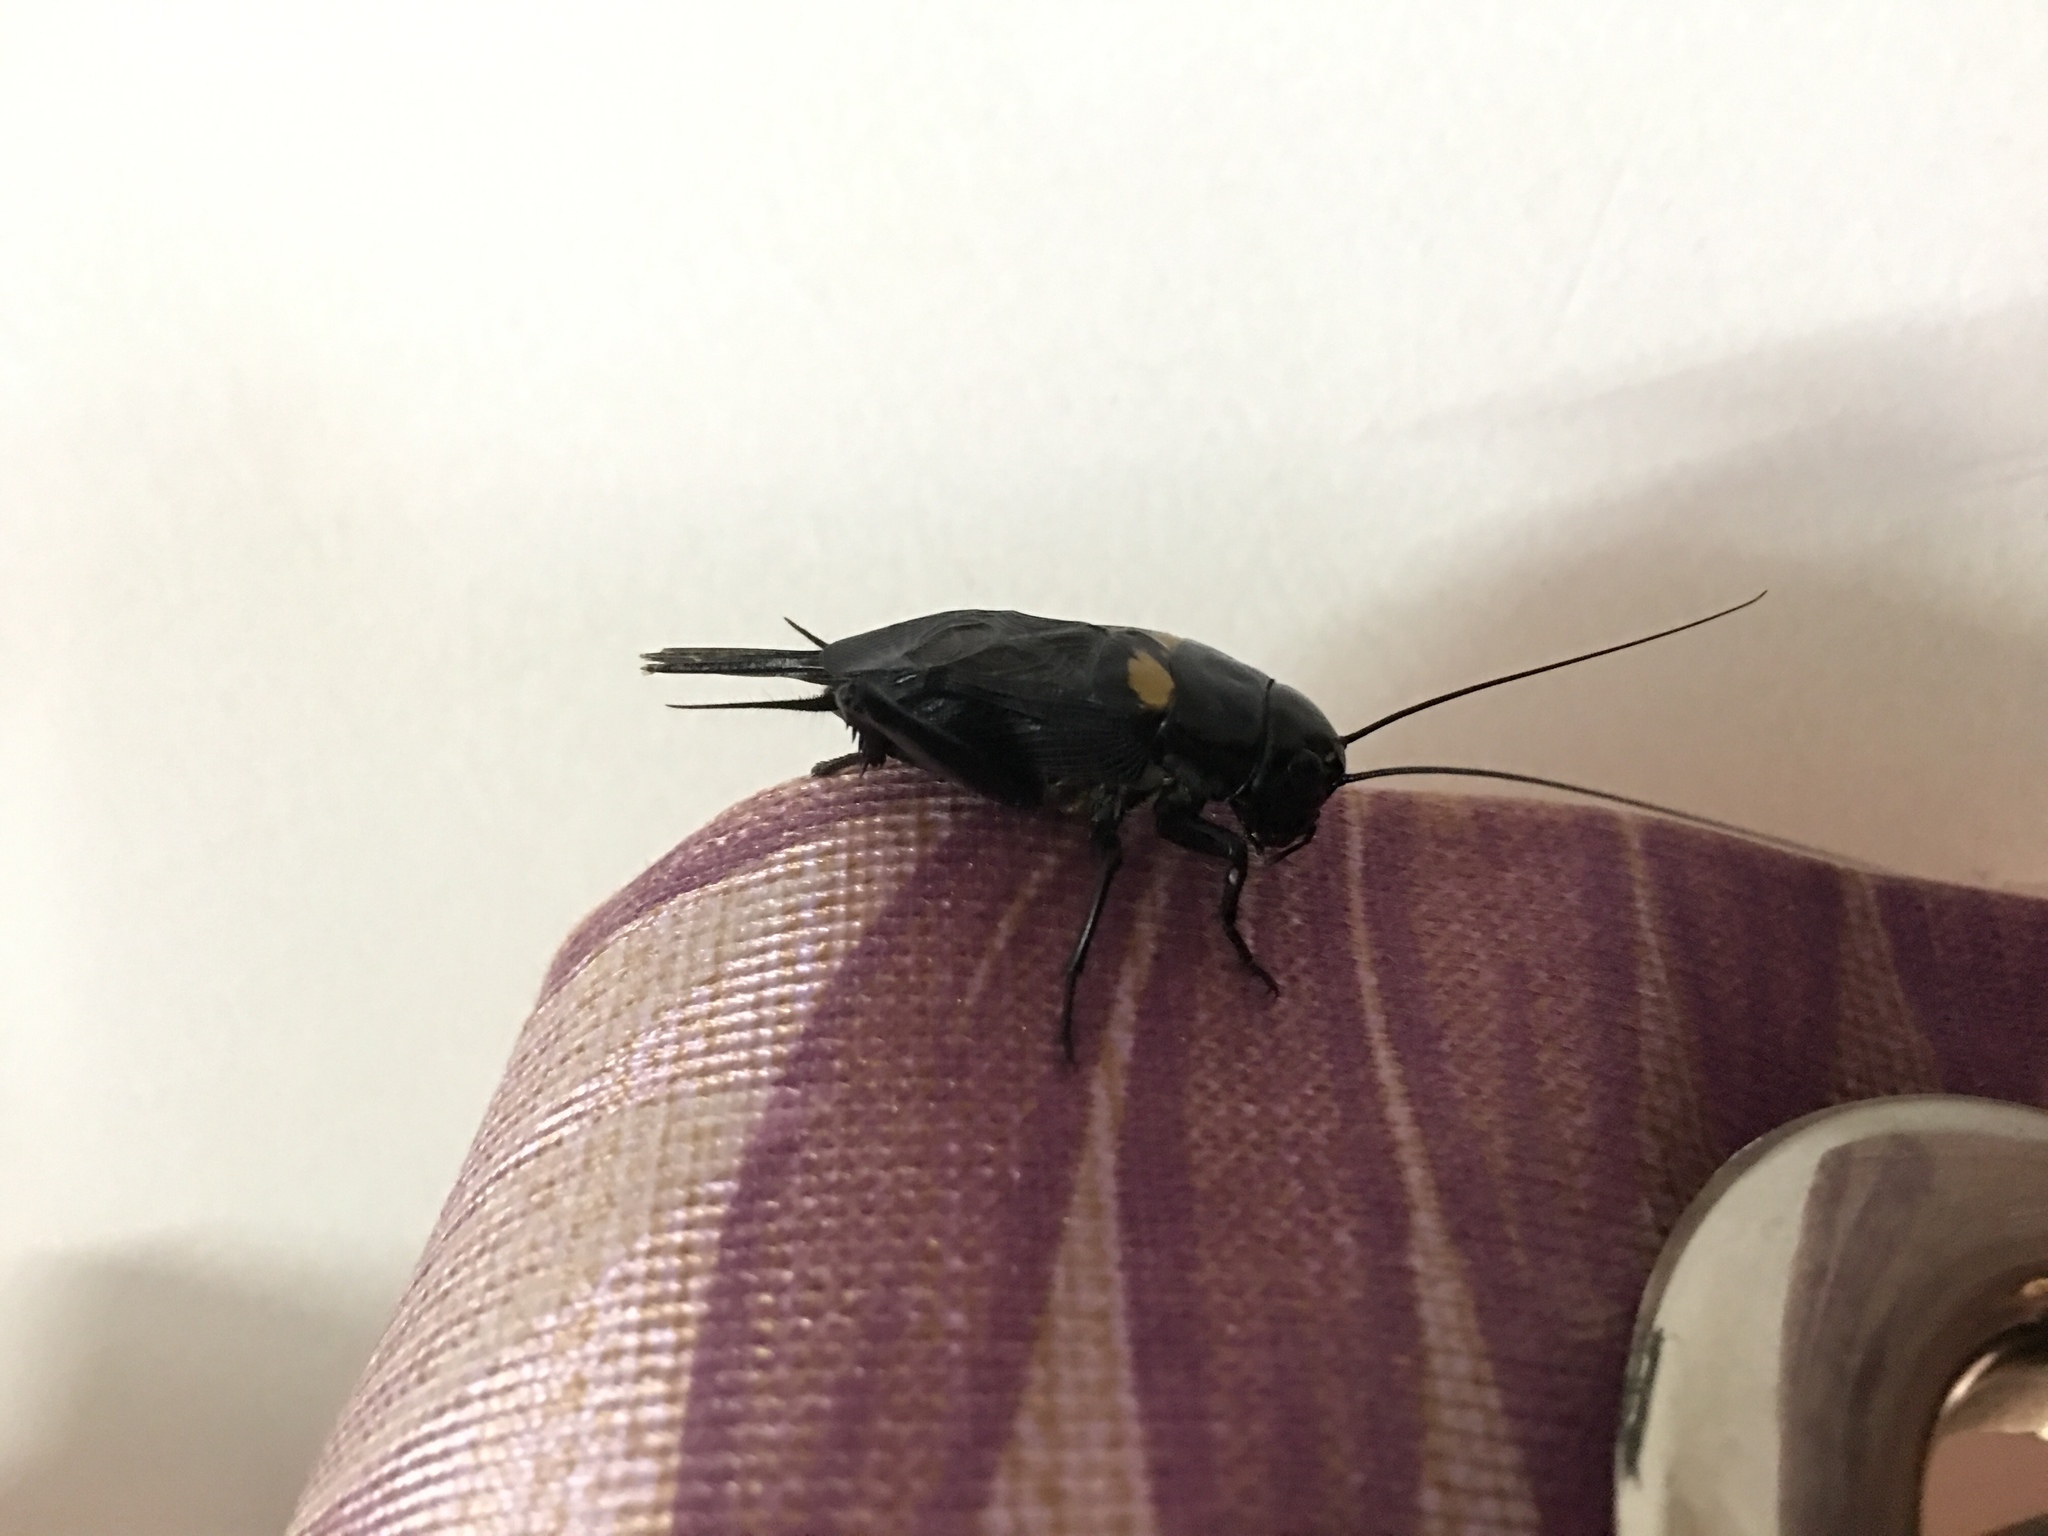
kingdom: Animalia
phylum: Arthropoda
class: Insecta
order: Orthoptera
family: Gryllidae
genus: Gryllus
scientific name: Gryllus bimaculatus
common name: Two-spotted cricket
